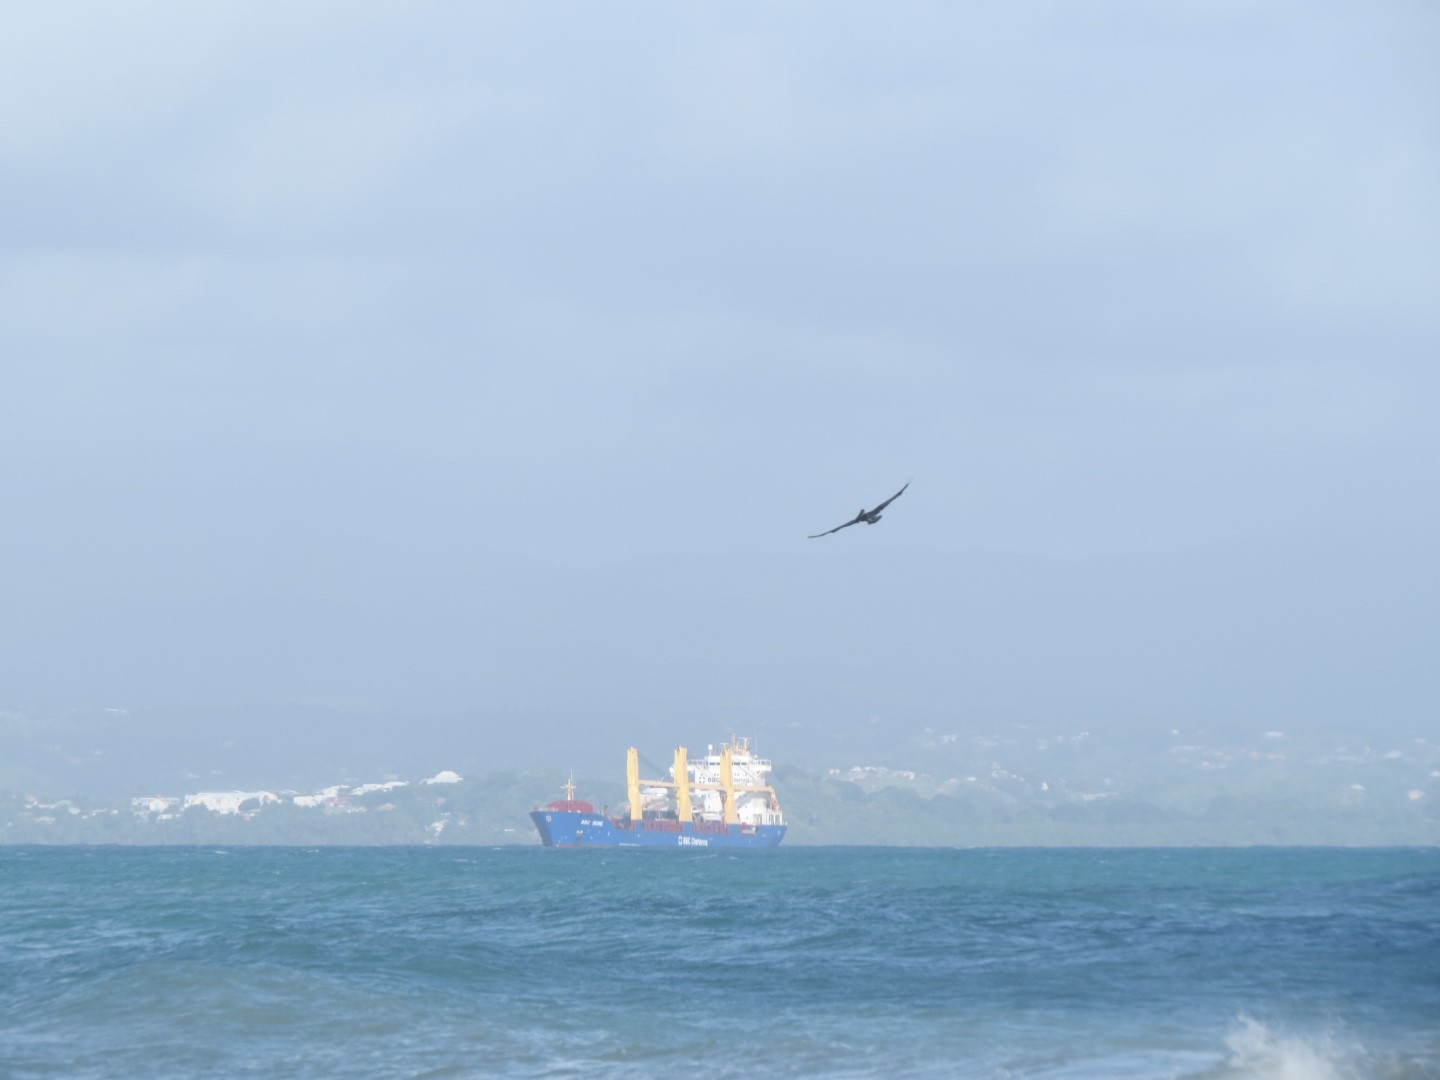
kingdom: Animalia
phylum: Chordata
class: Aves
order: Pelecaniformes
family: Pelecanidae
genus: Pelecanus
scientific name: Pelecanus occidentalis
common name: Brown pelican
